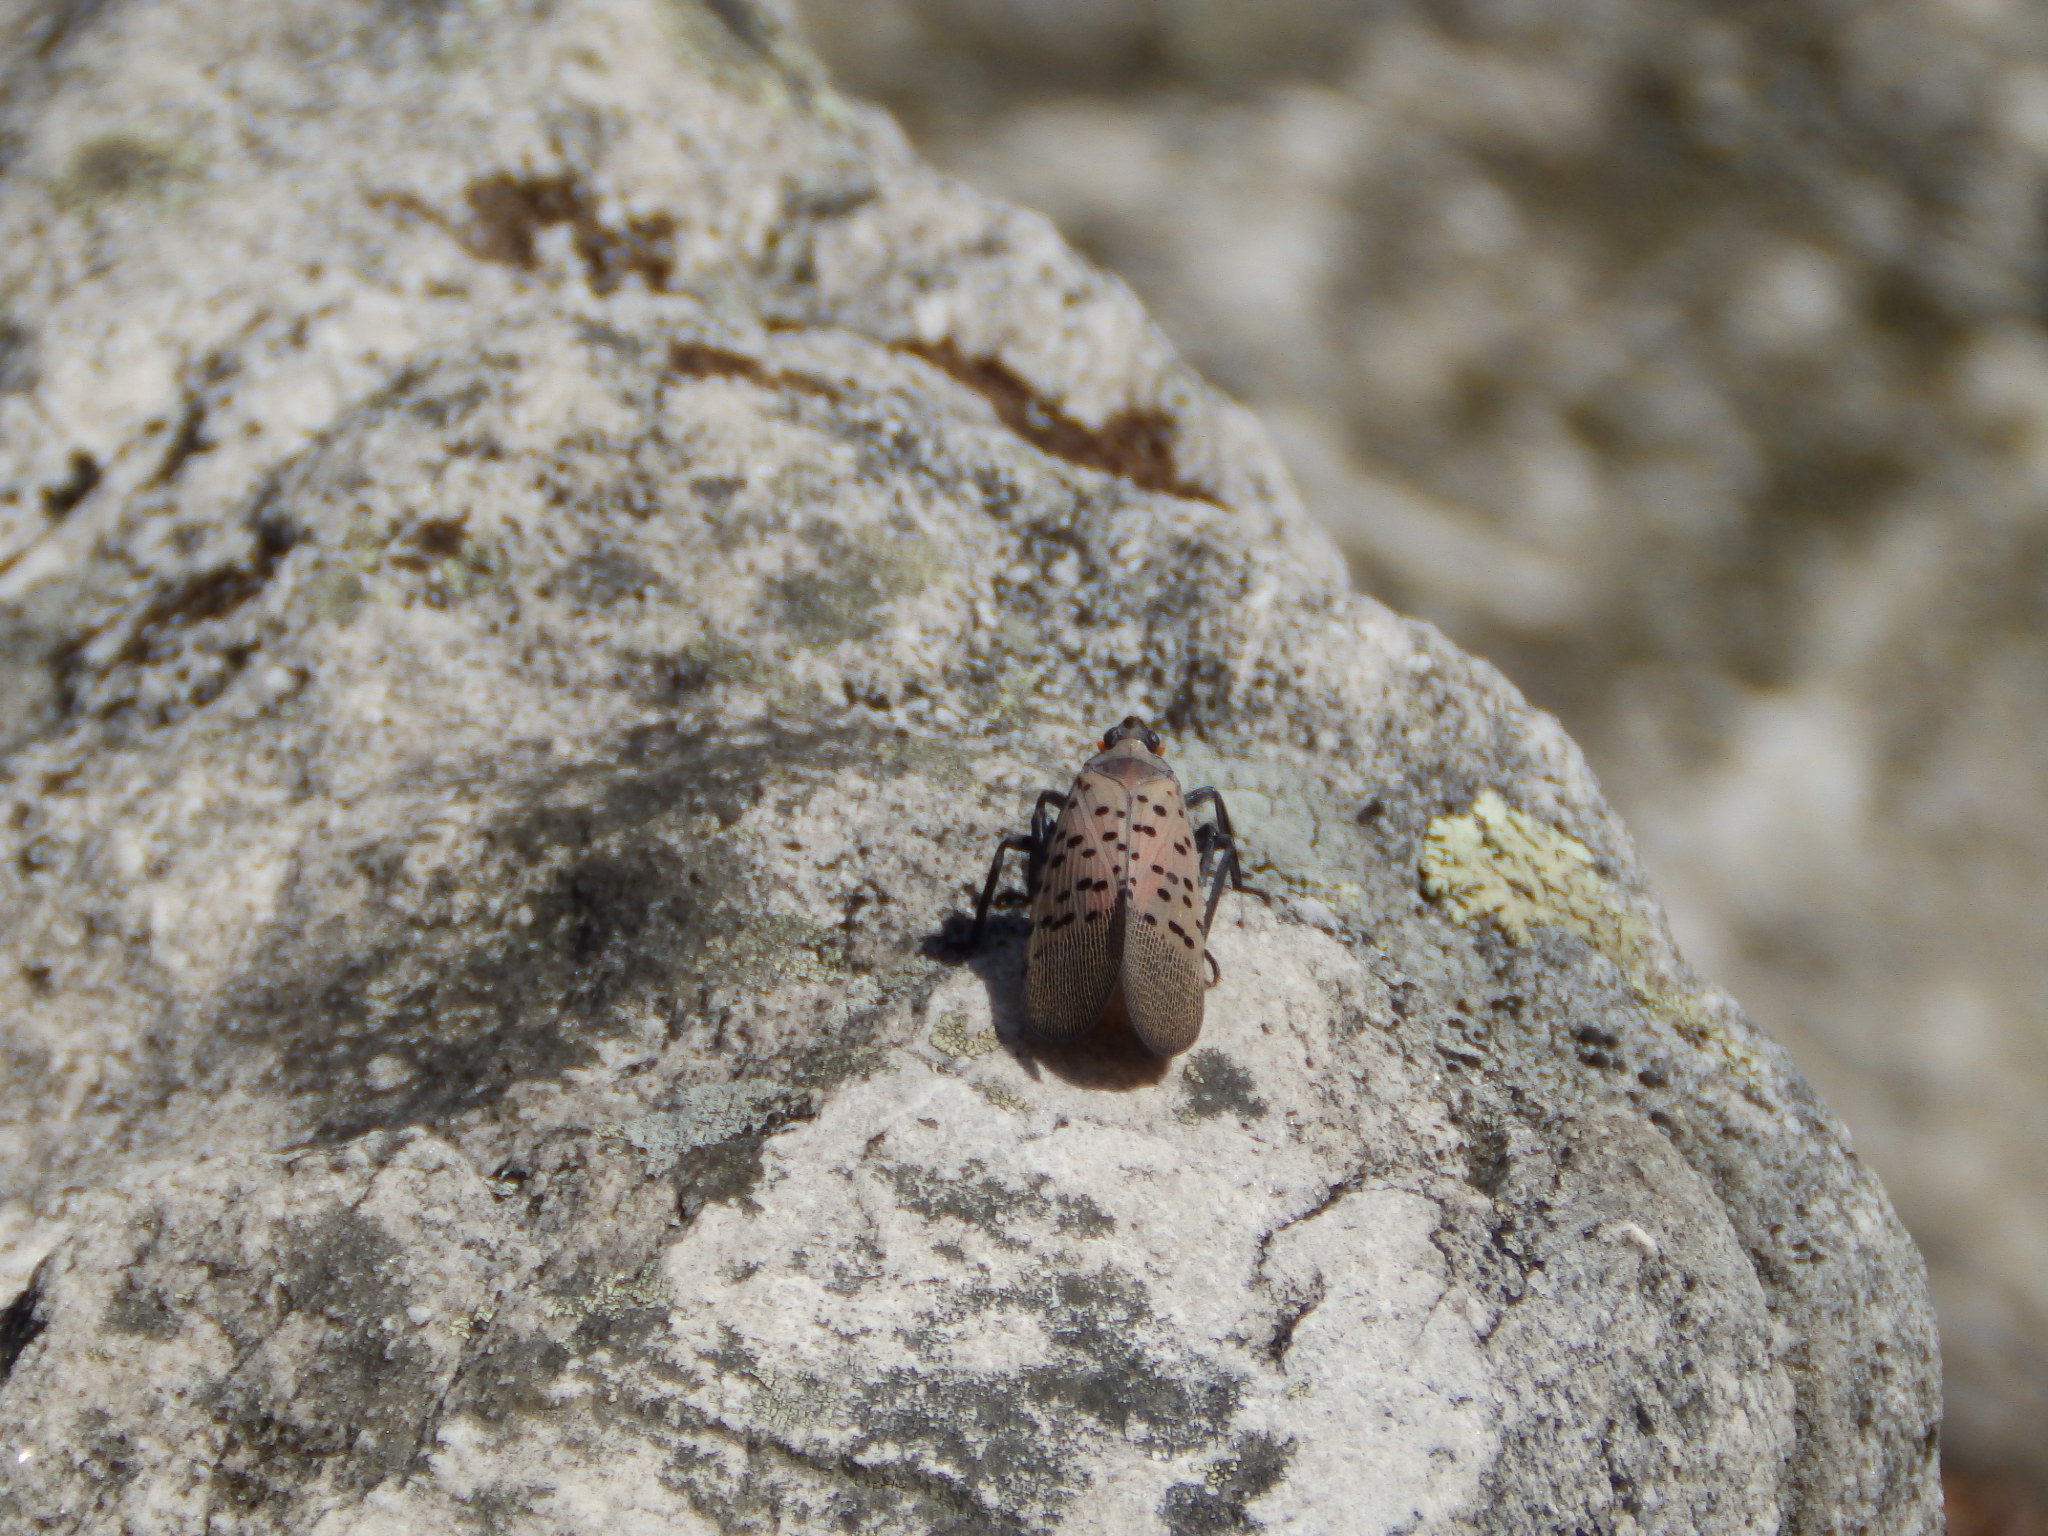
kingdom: Animalia
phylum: Arthropoda
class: Insecta
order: Hemiptera
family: Fulgoridae
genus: Lycorma
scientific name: Lycorma delicatula
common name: Spotted lanternfly
